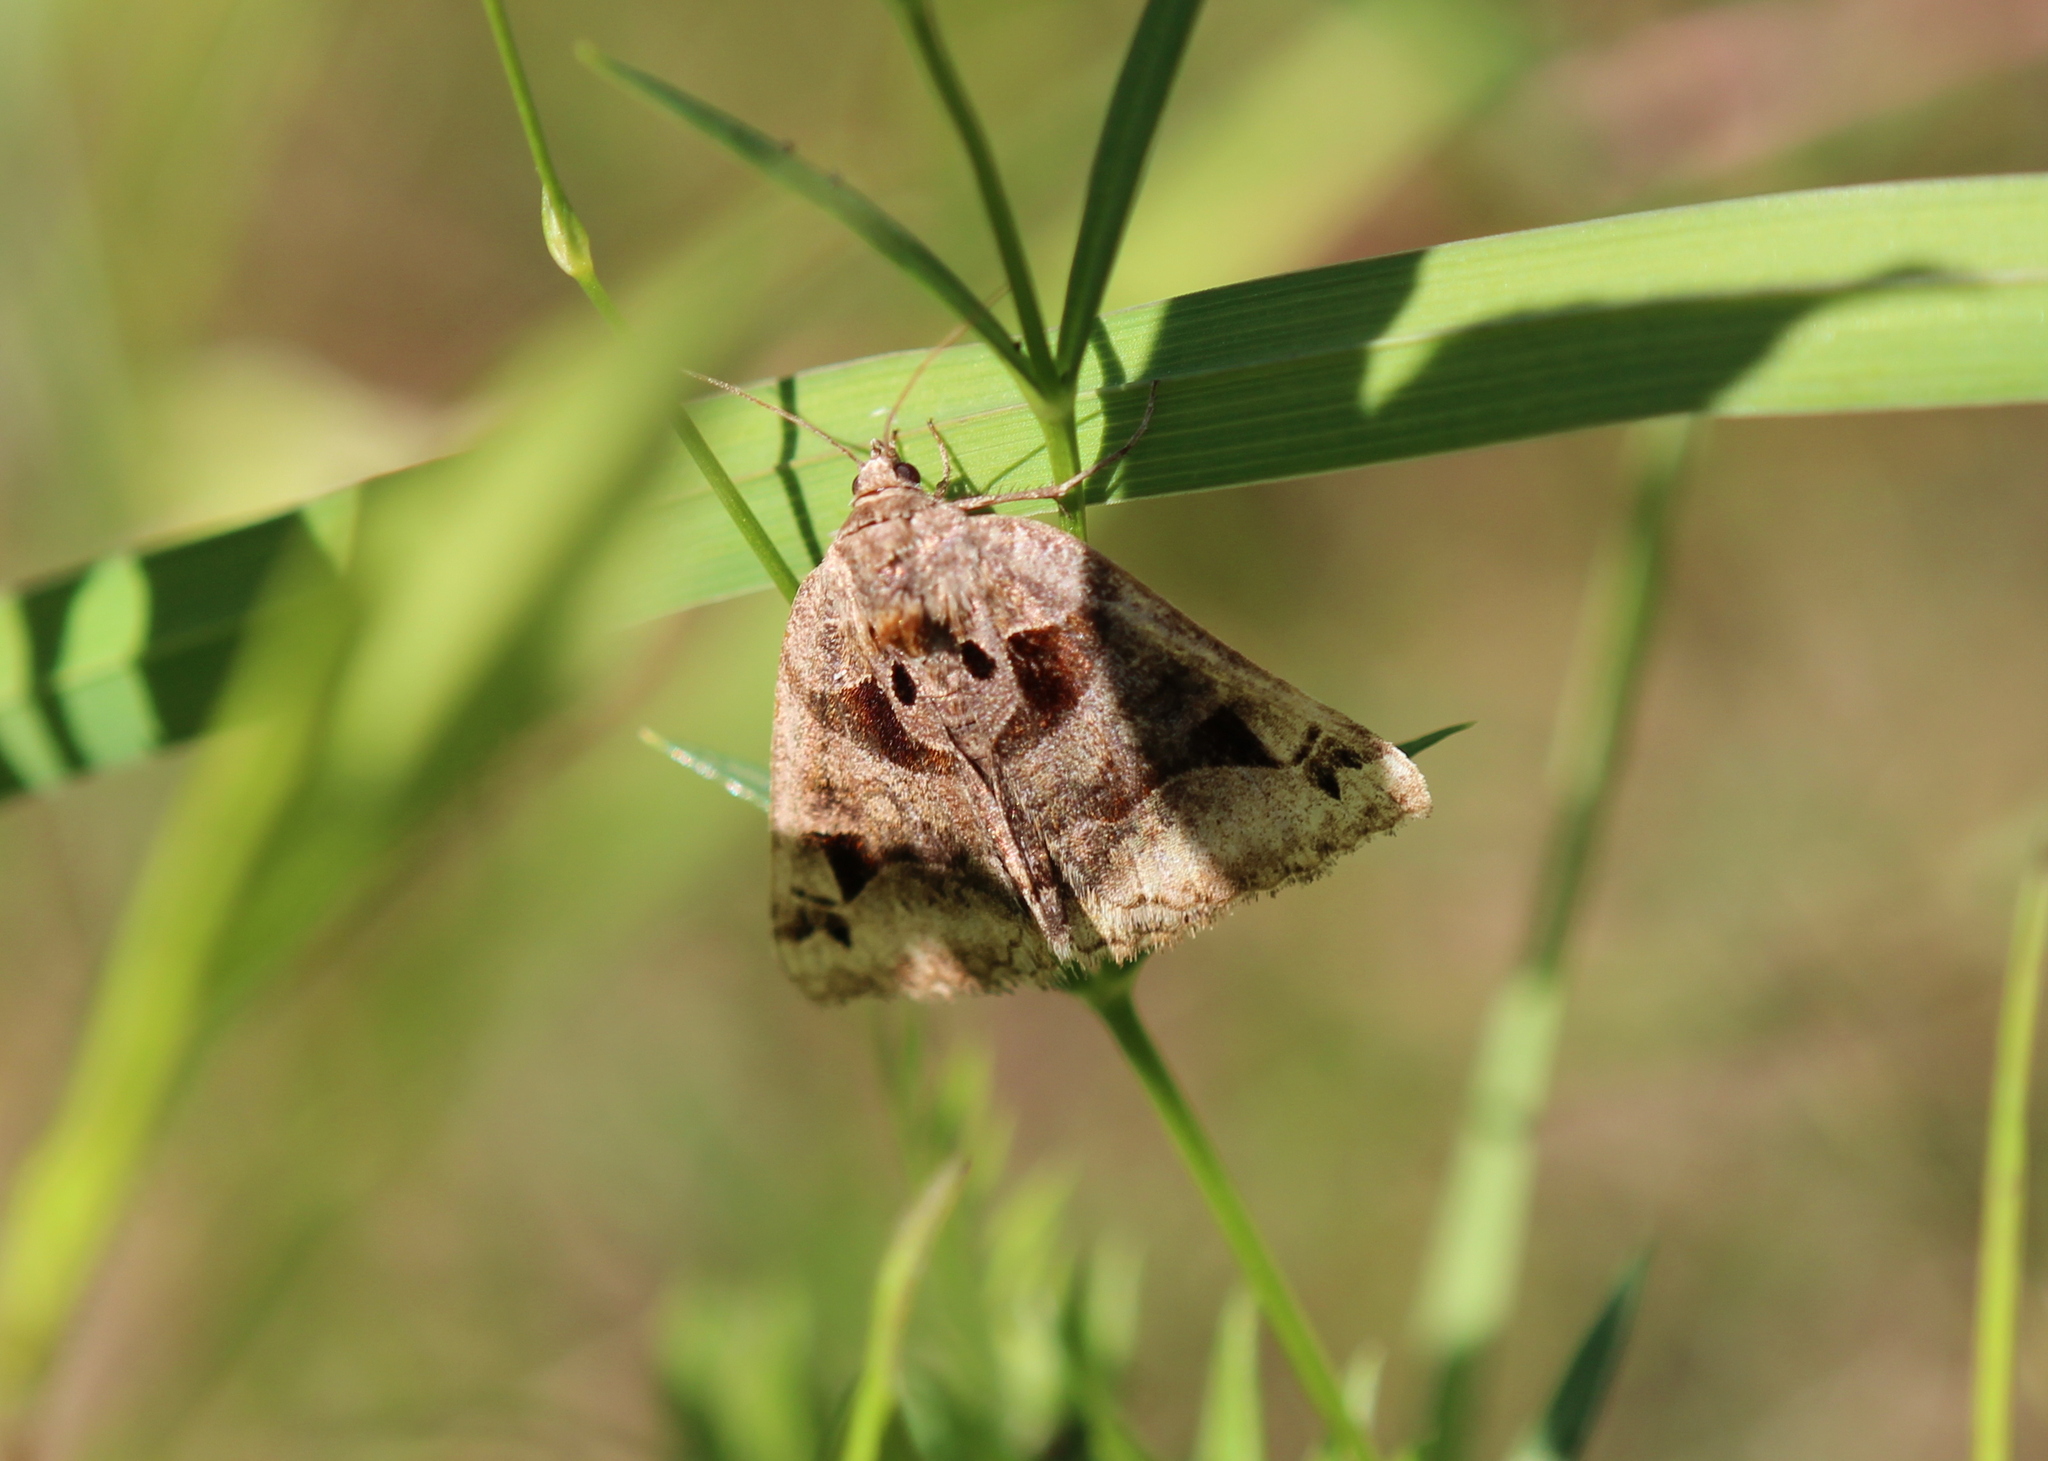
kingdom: Animalia
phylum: Arthropoda
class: Insecta
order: Lepidoptera
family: Erebidae
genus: Euclidia
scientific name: Euclidia cuspidea
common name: Toothed somberwing
